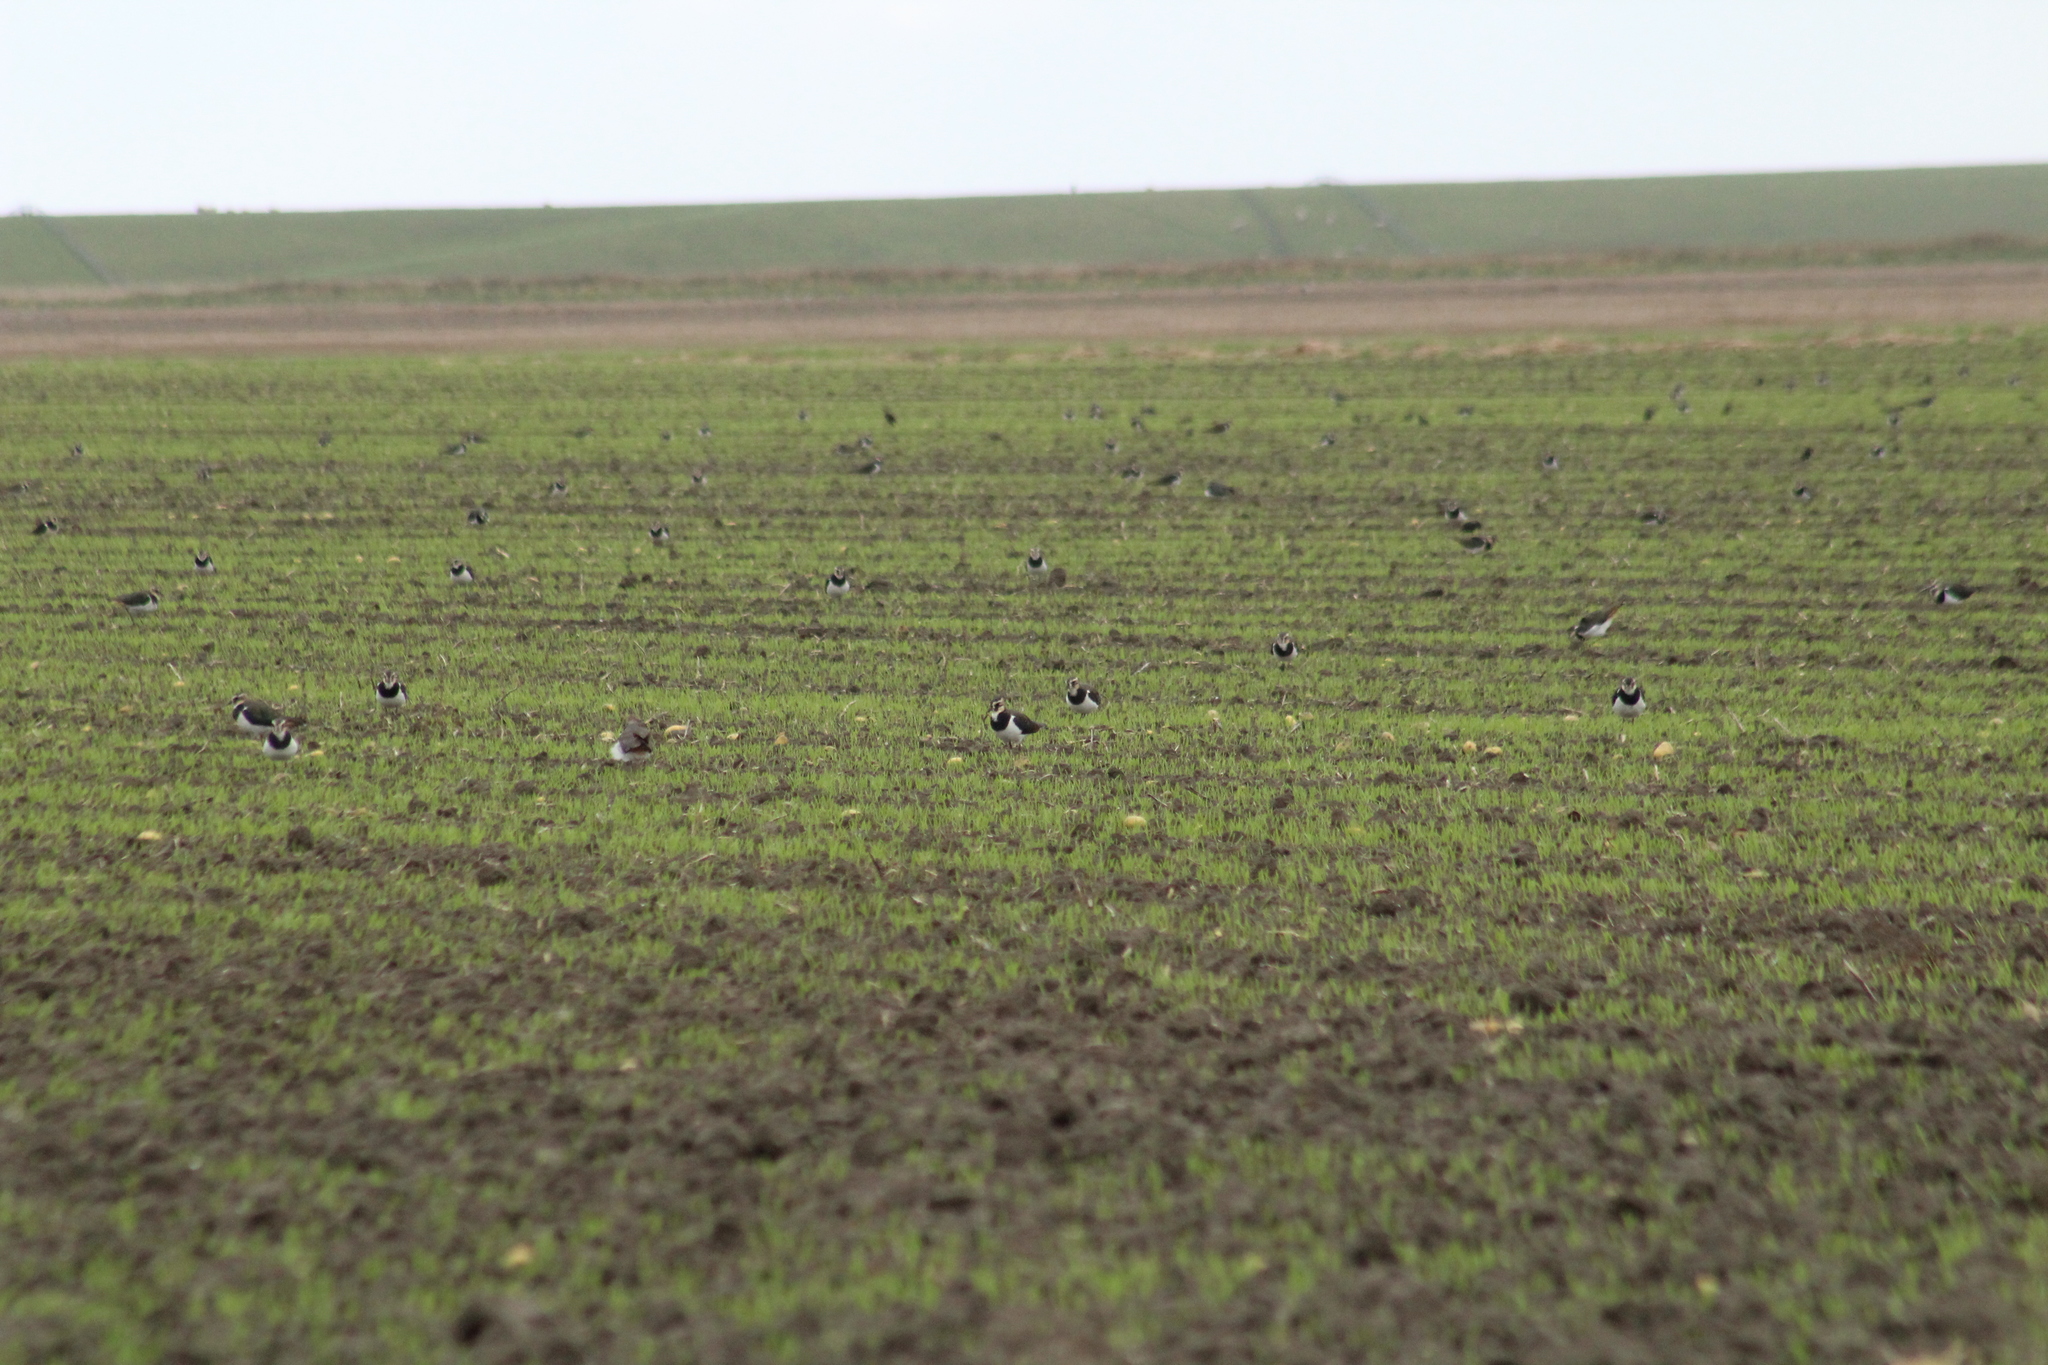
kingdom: Animalia
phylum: Chordata
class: Aves
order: Charadriiformes
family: Charadriidae
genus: Vanellus
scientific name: Vanellus vanellus
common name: Northern lapwing
